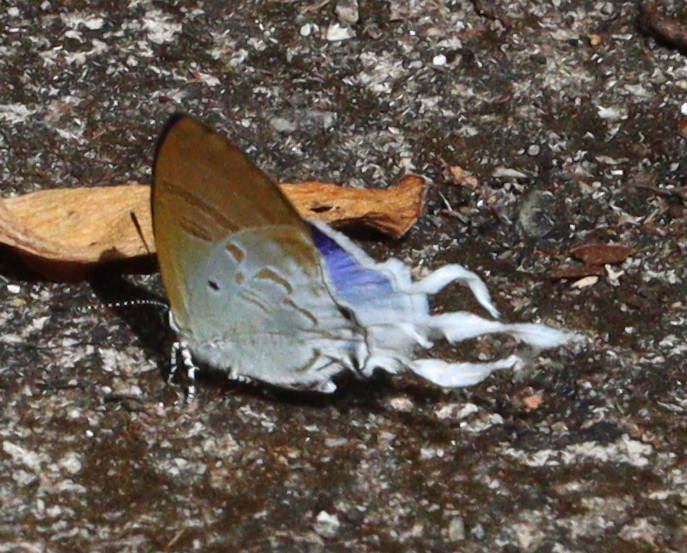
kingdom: Animalia
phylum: Arthropoda
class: Insecta
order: Lepidoptera
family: Lycaenidae
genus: Zeltus
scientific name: Zeltus amasa
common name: Fluffy tit
